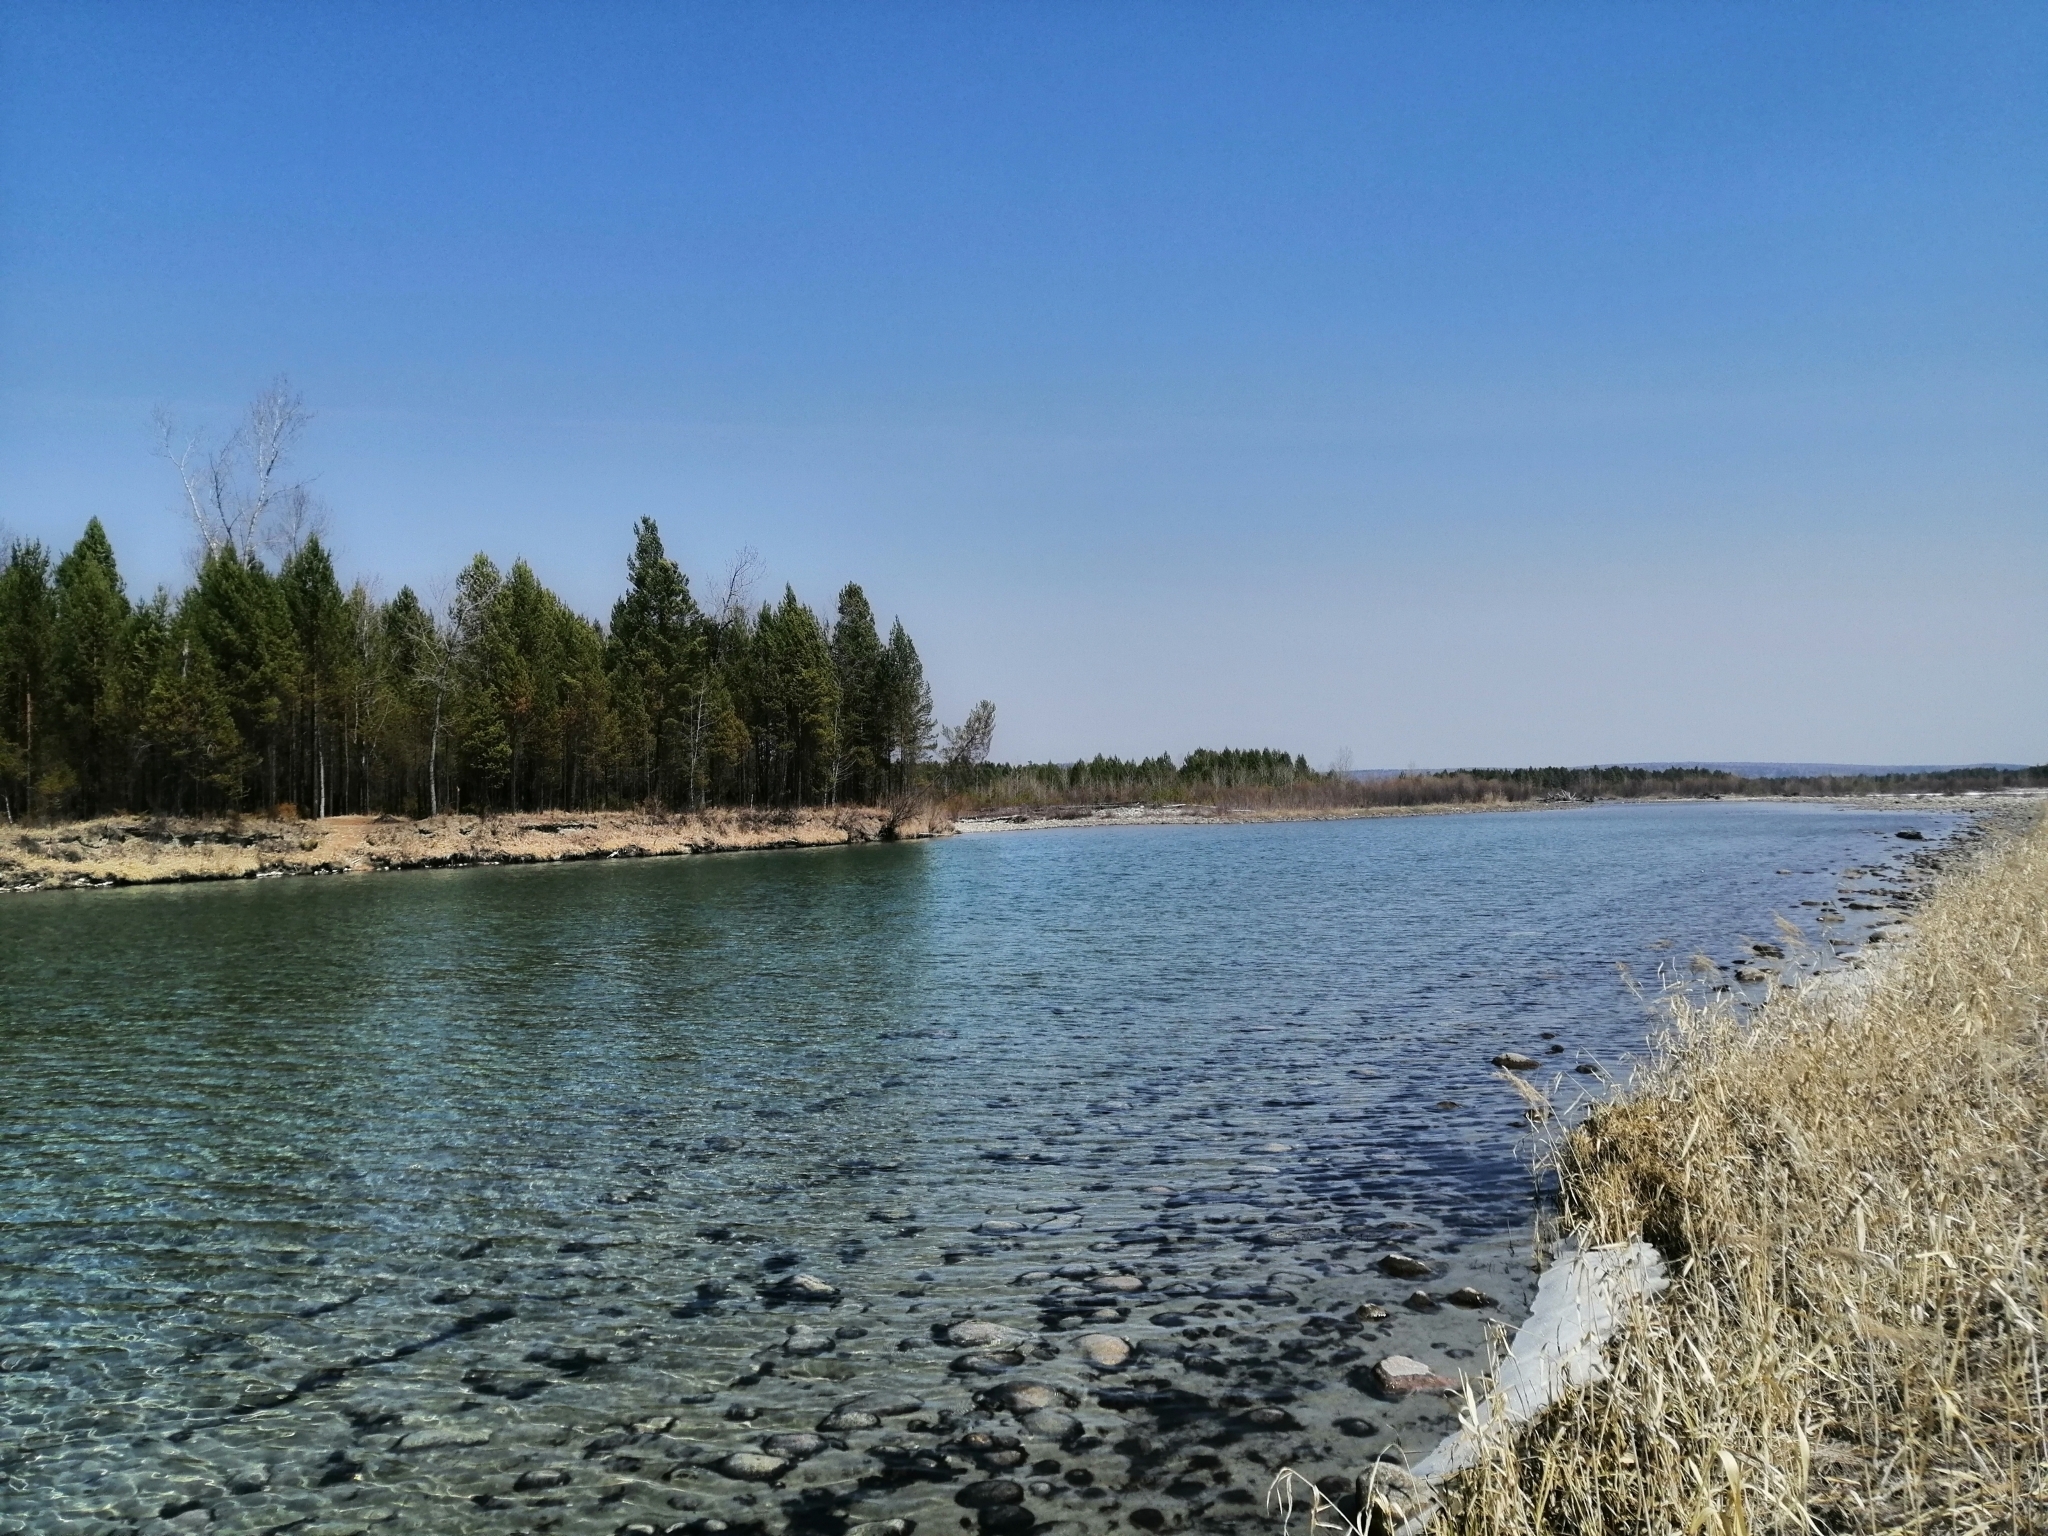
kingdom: Plantae
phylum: Tracheophyta
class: Pinopsida
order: Pinales
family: Pinaceae
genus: Pinus
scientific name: Pinus sylvestris
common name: Scots pine
